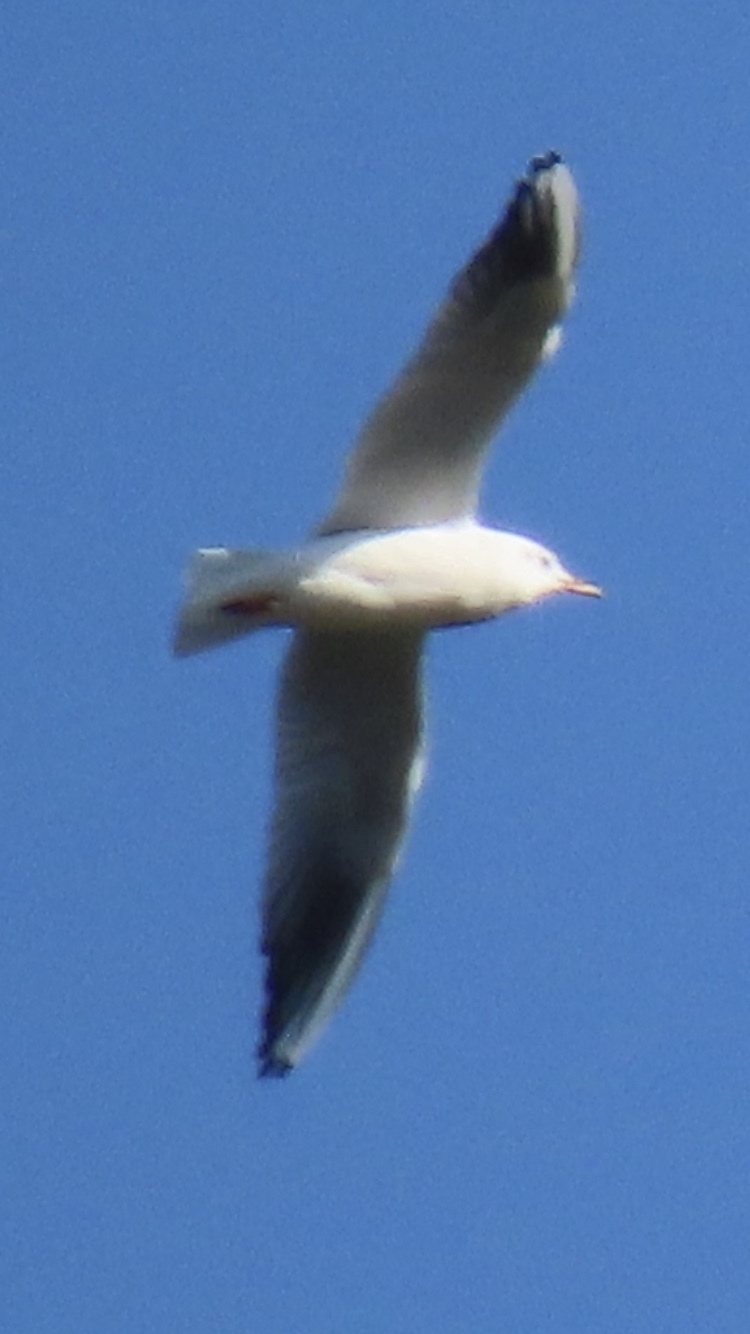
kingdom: Animalia
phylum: Chordata
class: Aves
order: Charadriiformes
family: Laridae
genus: Chroicocephalus
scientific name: Chroicocephalus ridibundus
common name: Black-headed gull
